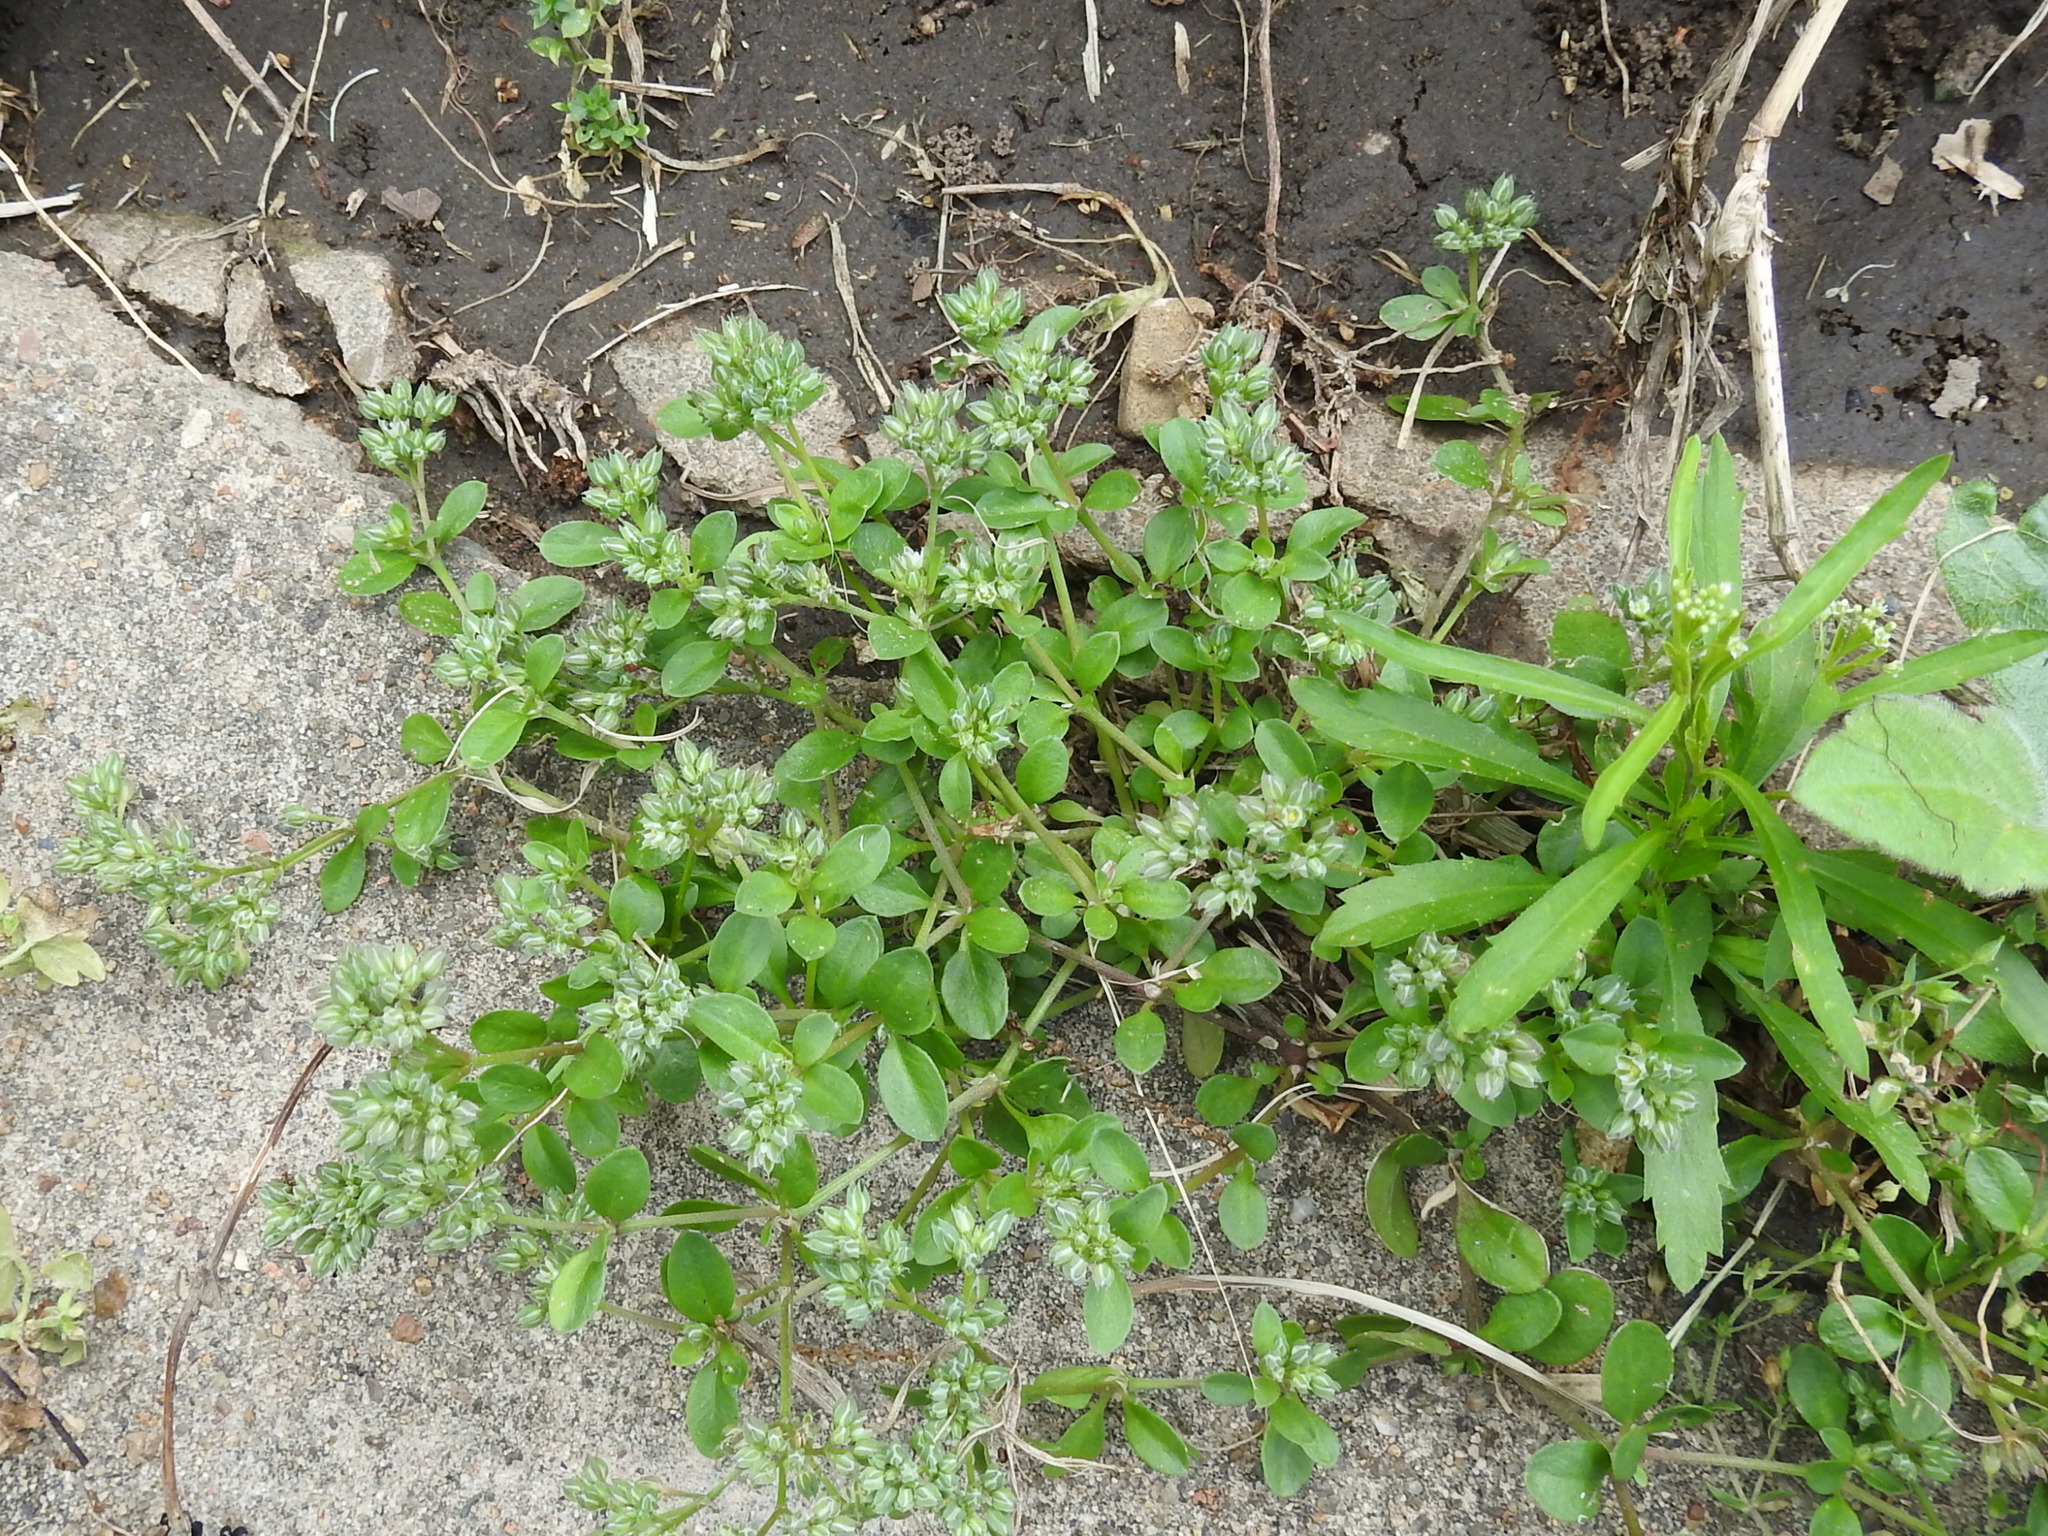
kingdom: Plantae
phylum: Tracheophyta
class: Magnoliopsida
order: Caryophyllales
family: Caryophyllaceae
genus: Polycarpon
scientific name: Polycarpon tetraphyllum
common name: Four-leaved all-seed
